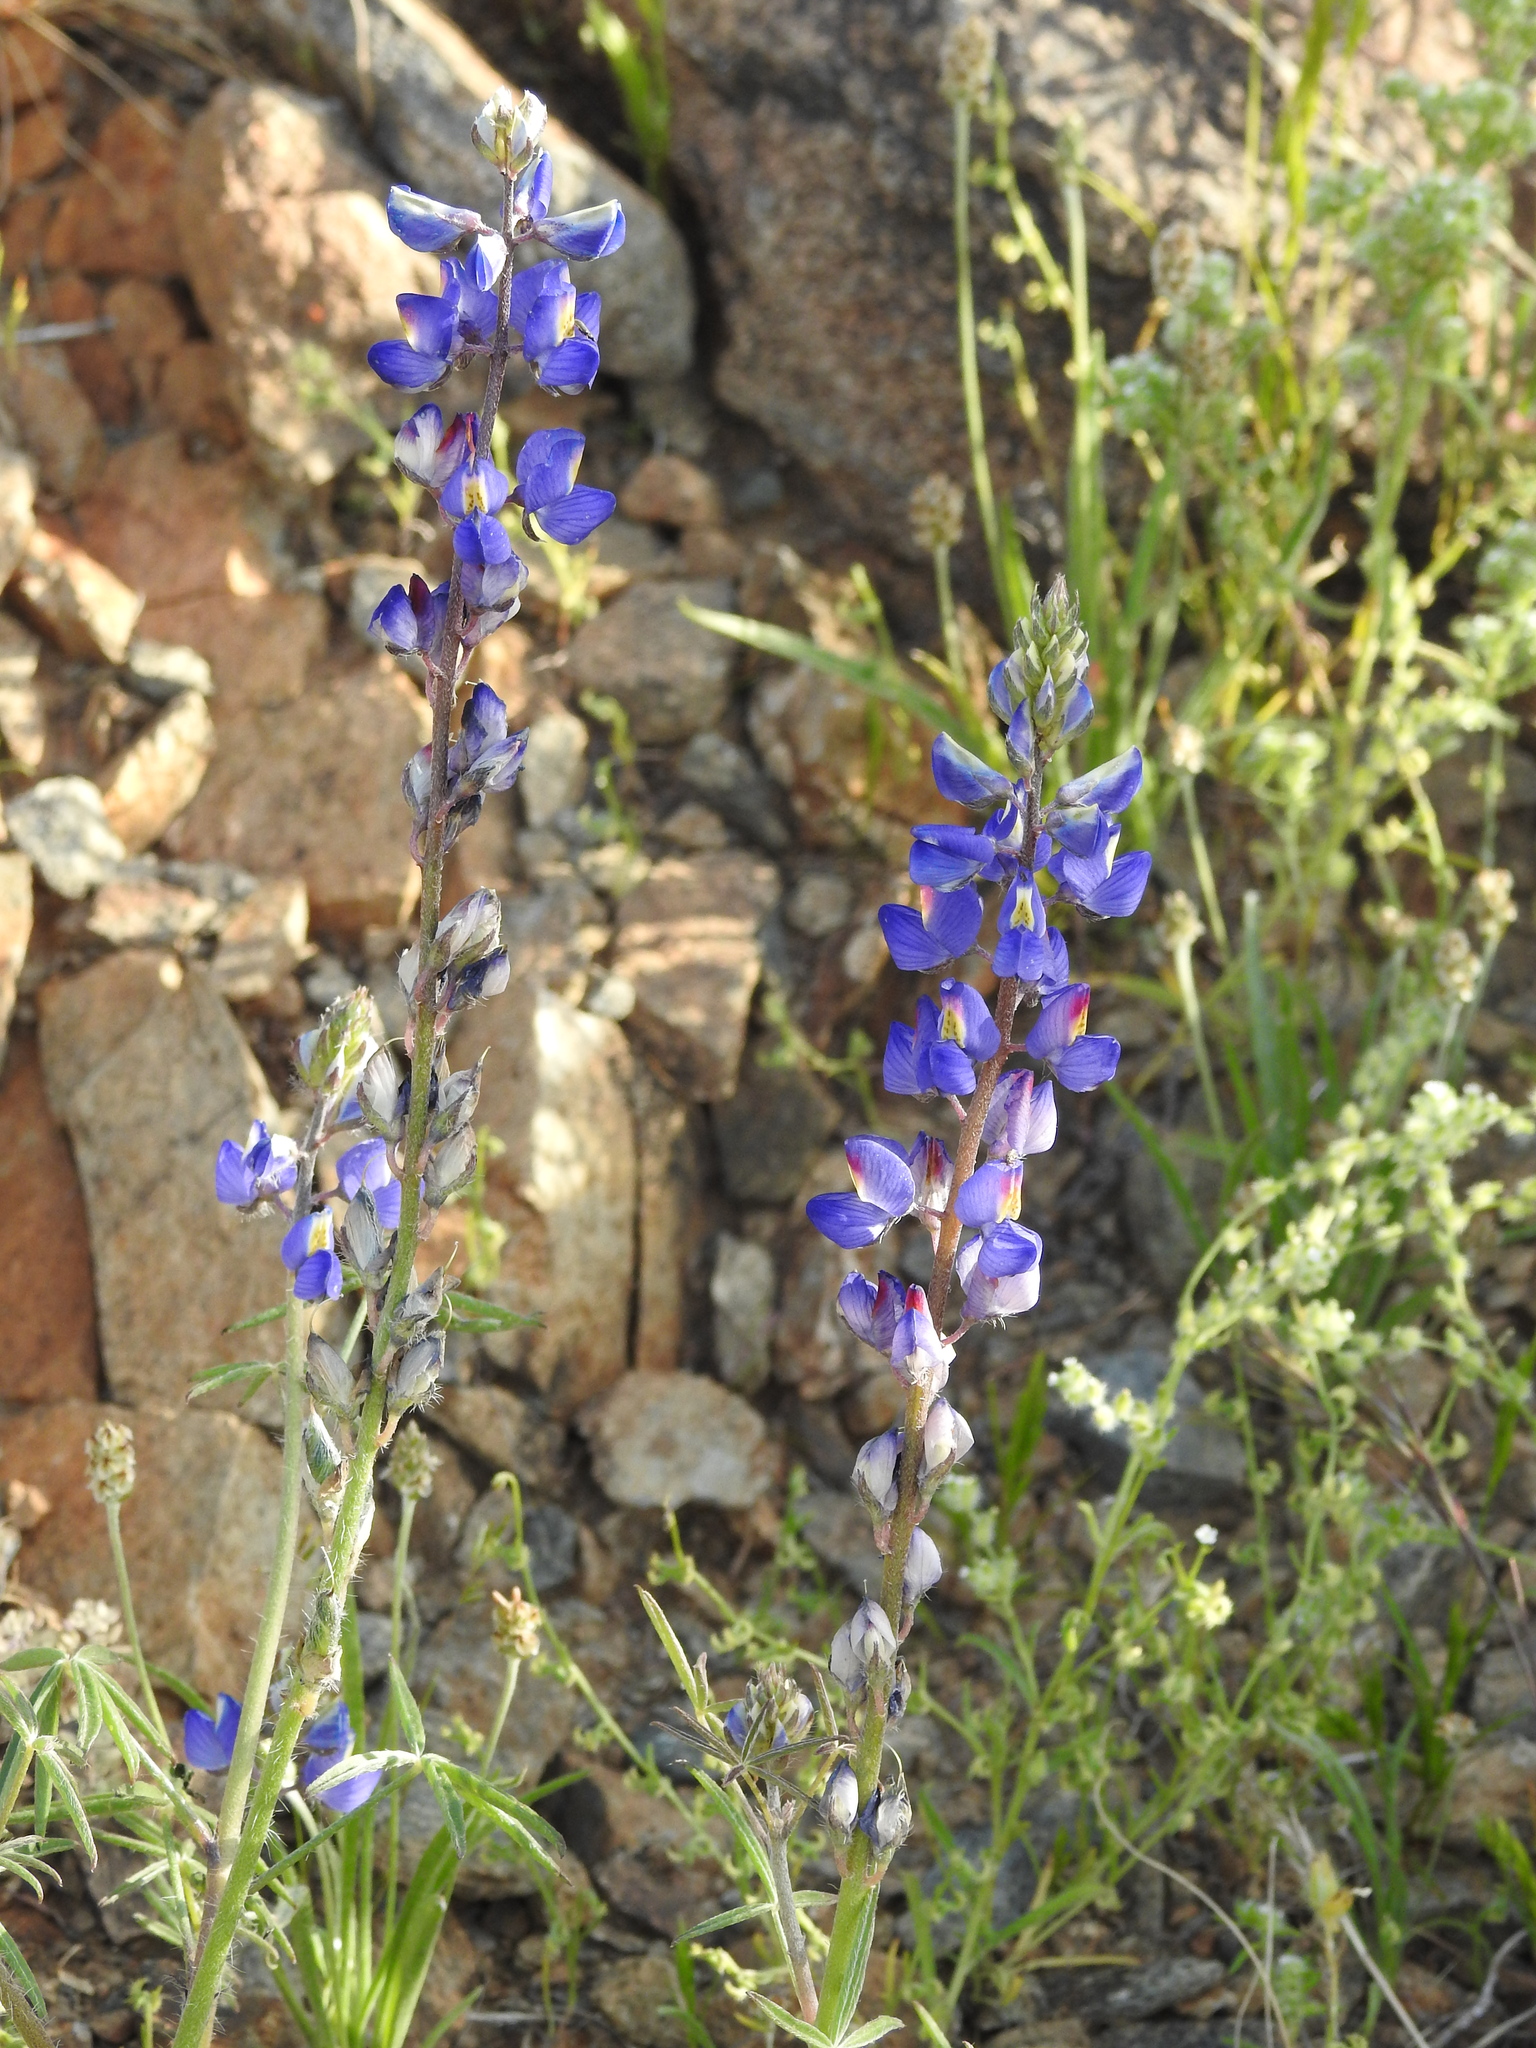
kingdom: Plantae
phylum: Tracheophyta
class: Magnoliopsida
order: Fabales
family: Fabaceae
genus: Lupinus
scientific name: Lupinus sparsiflorus
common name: Coulter's lupine
